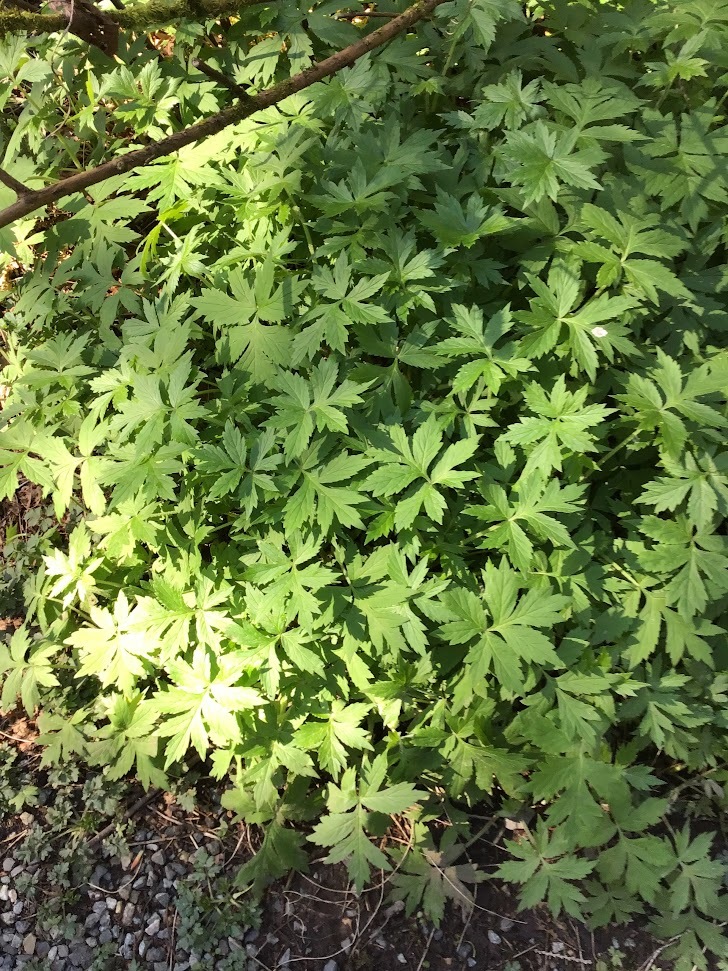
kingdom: Plantae
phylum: Tracheophyta
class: Magnoliopsida
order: Boraginales
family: Hydrophyllaceae
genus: Hydrophyllum
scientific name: Hydrophyllum tenuipes
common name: Pacific waterleaf
